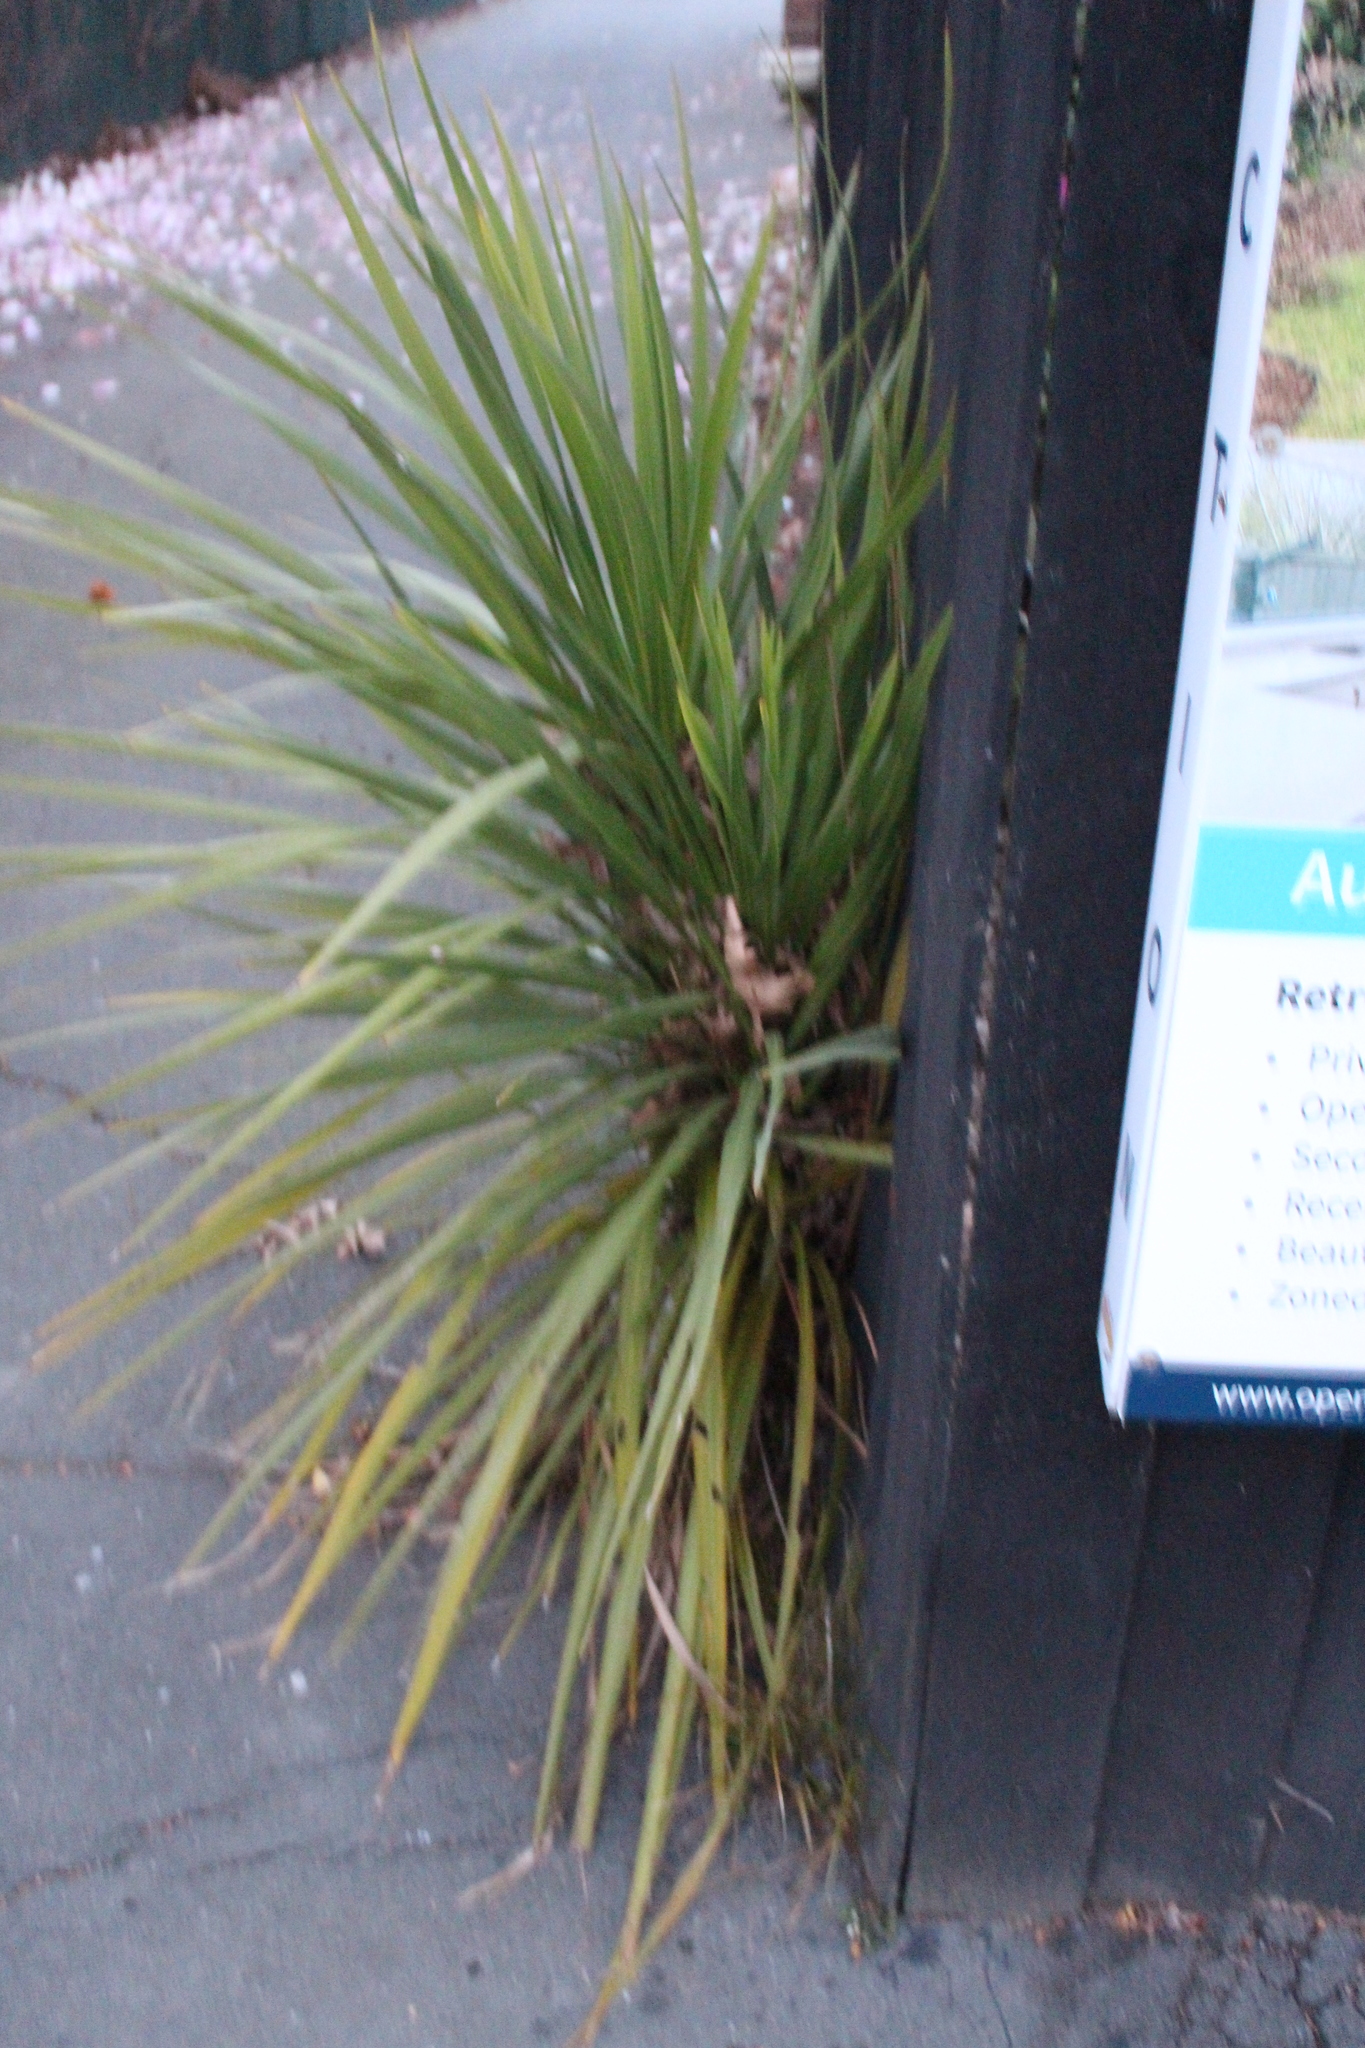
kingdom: Plantae
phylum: Tracheophyta
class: Liliopsida
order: Asparagales
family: Asparagaceae
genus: Cordyline
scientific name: Cordyline australis
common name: Cabbage-palm
